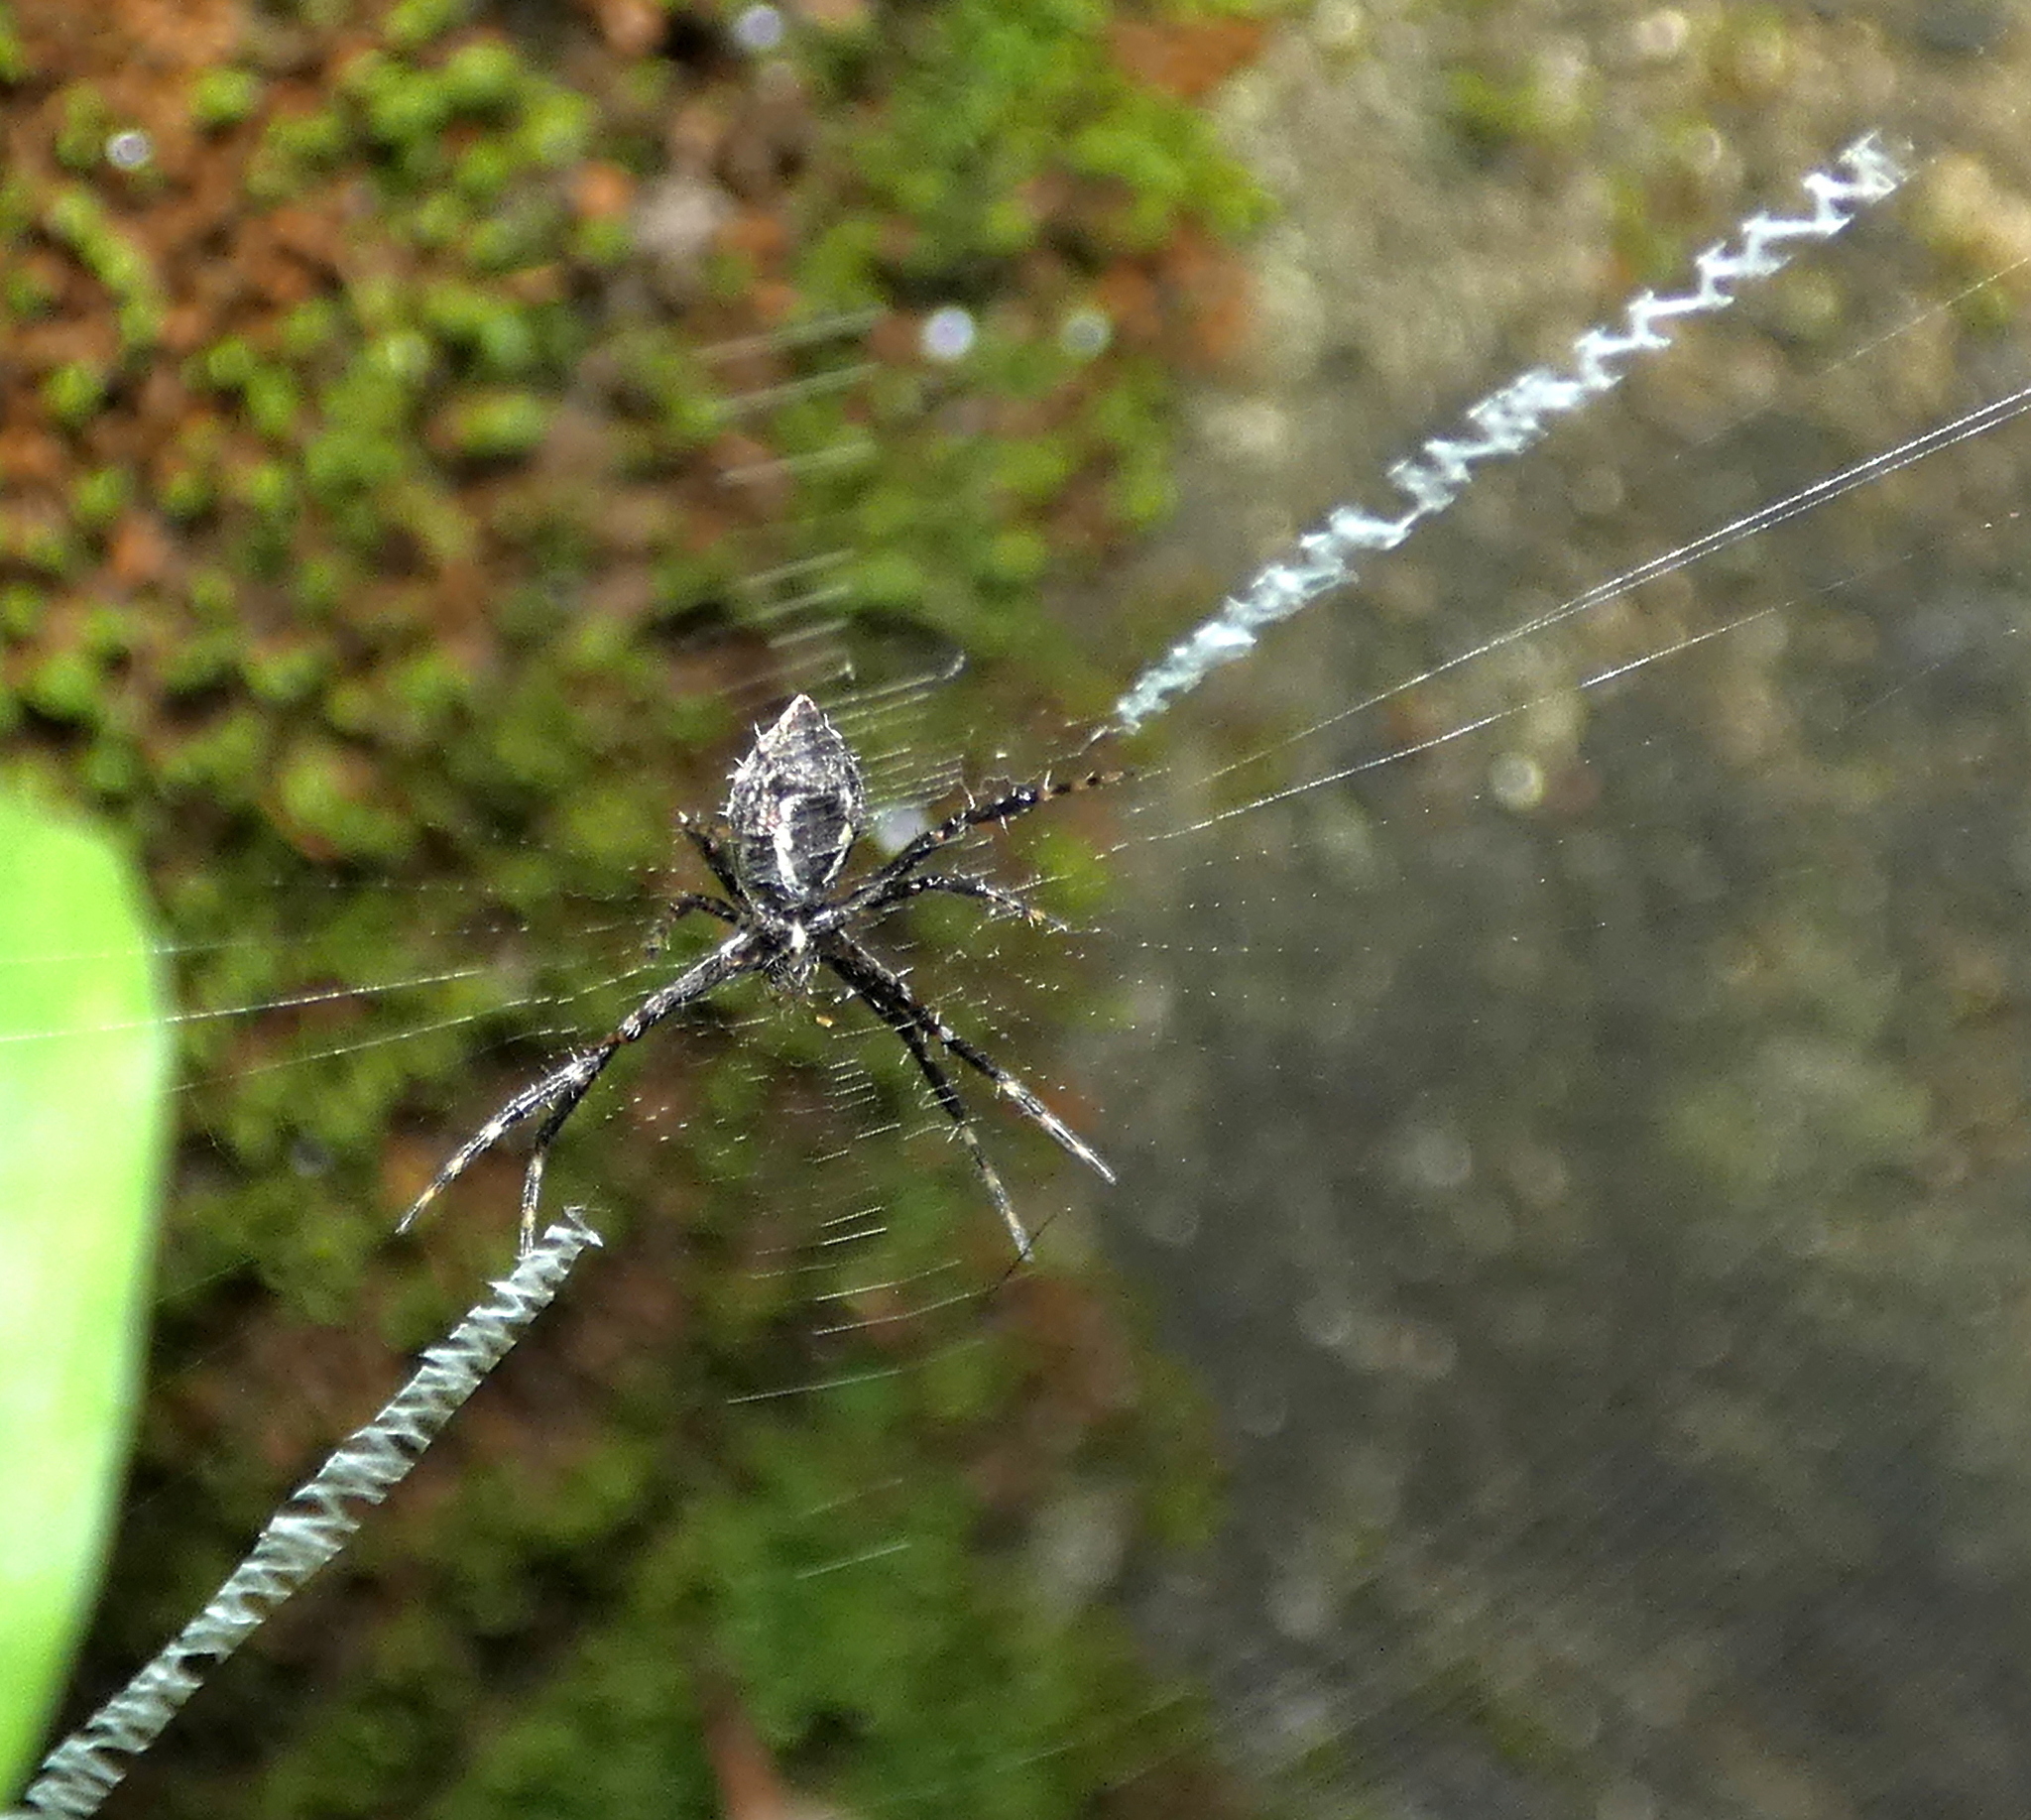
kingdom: Animalia
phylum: Arthropoda
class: Arachnida
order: Araneae
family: Araneidae
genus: Argiope
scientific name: Argiope argentata
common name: Orb weavers
